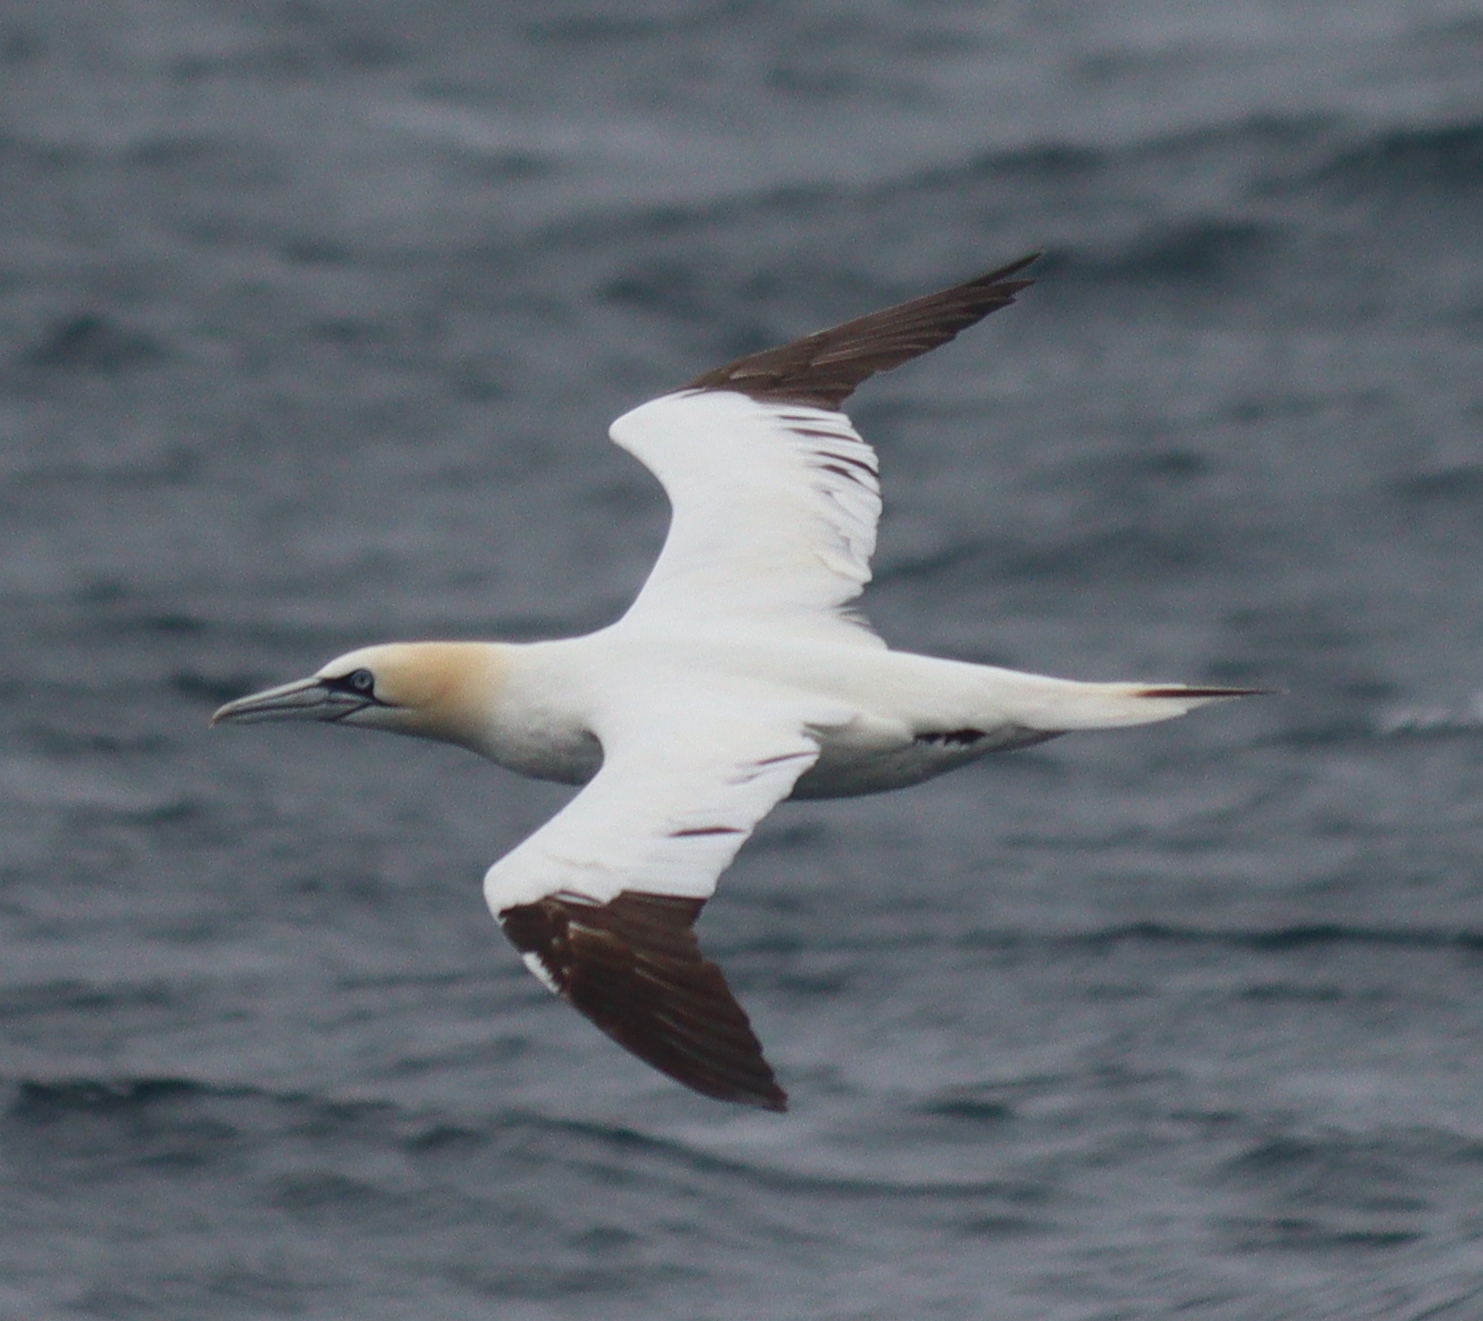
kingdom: Animalia
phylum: Chordata
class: Aves
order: Suliformes
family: Sulidae
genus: Morus
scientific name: Morus bassanus
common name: Northern gannet
